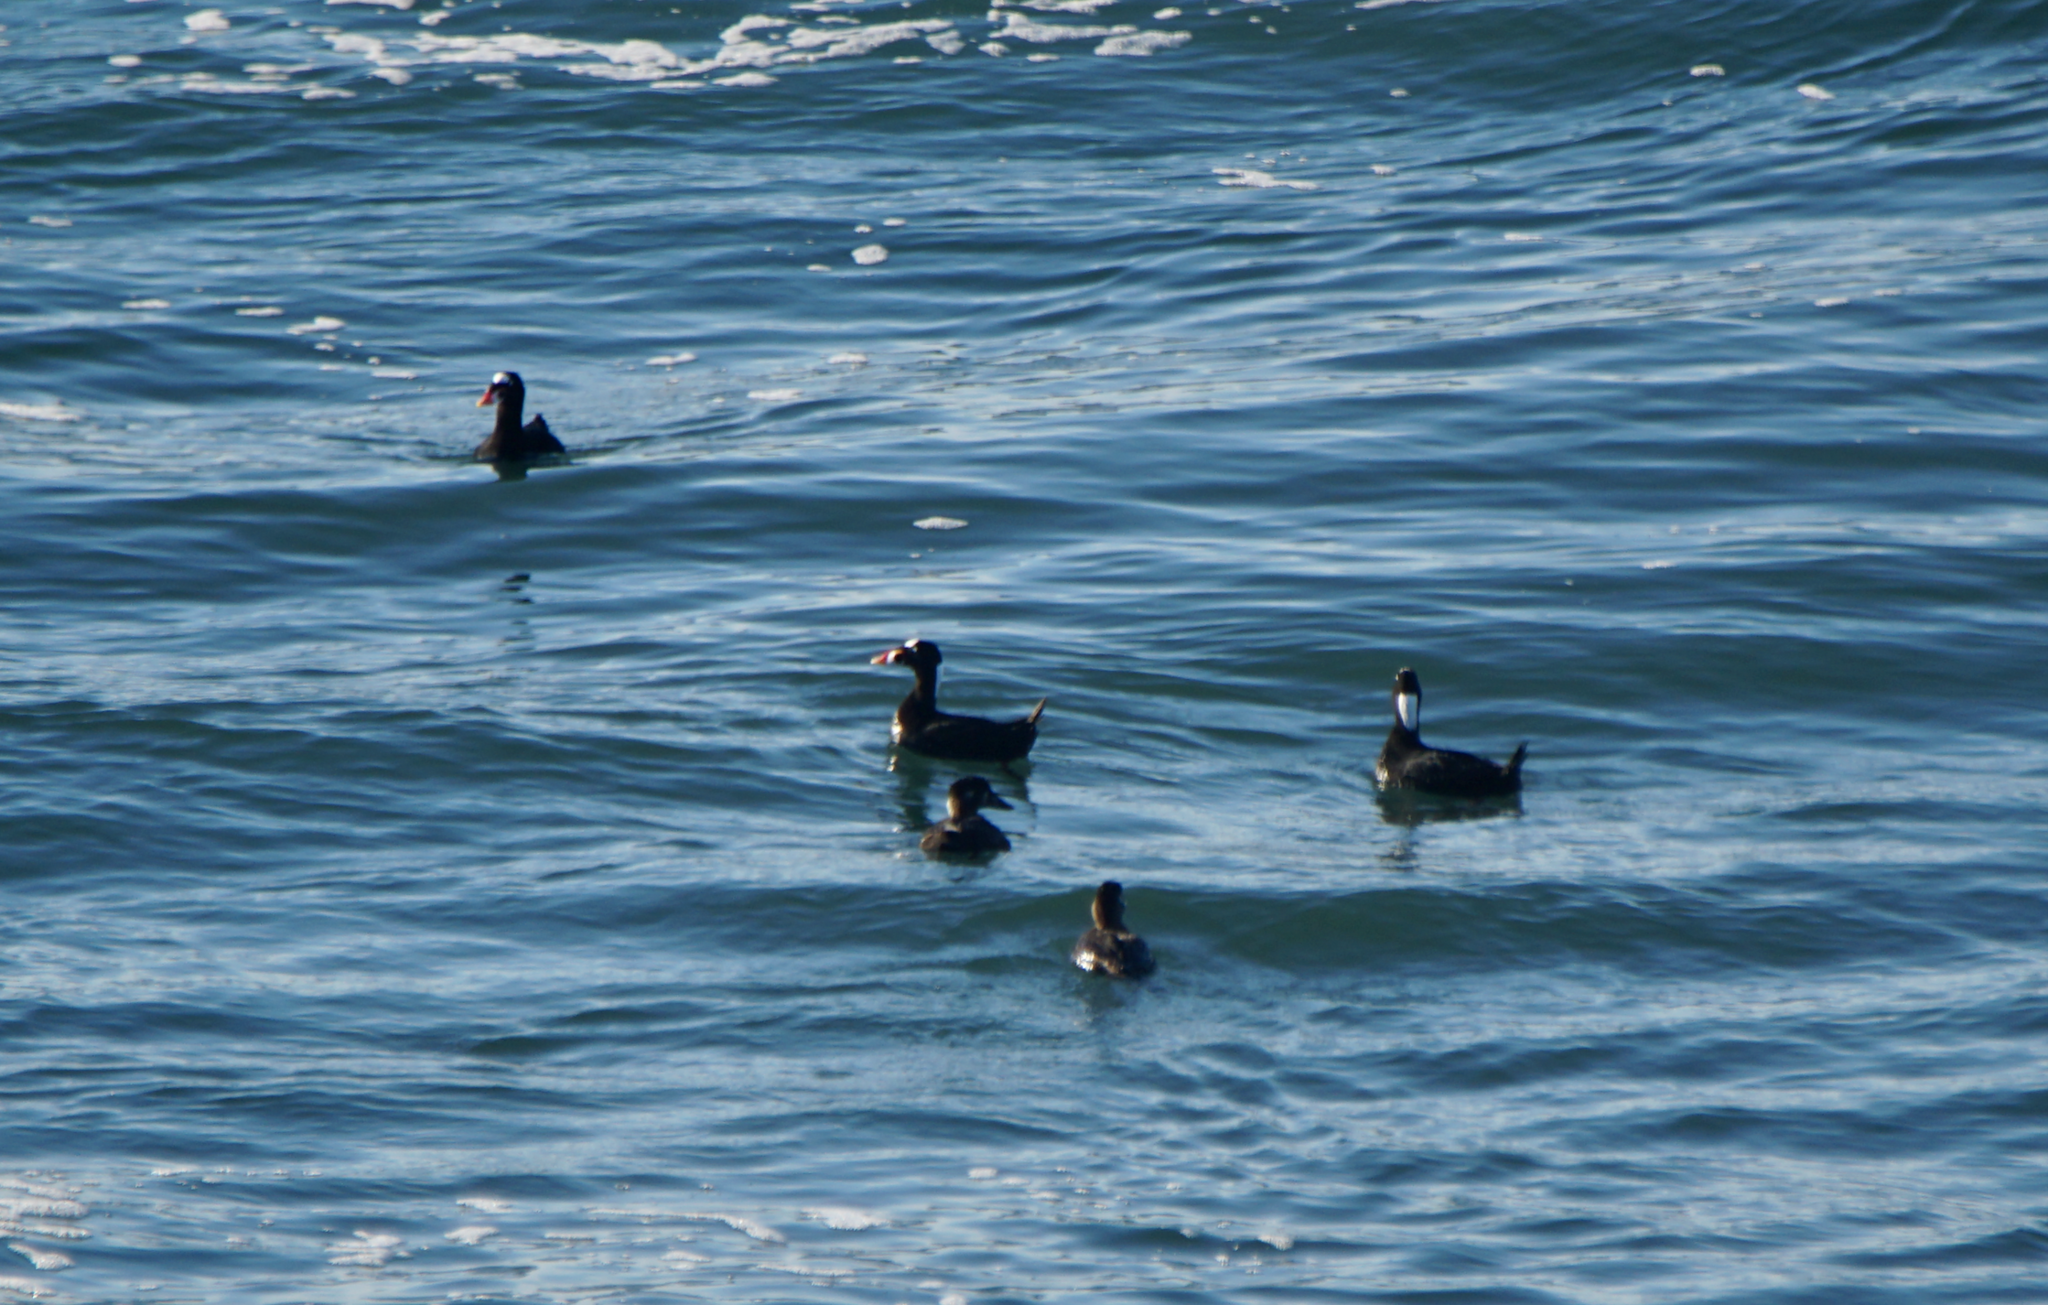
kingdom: Animalia
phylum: Chordata
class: Aves
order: Anseriformes
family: Anatidae
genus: Melanitta
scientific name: Melanitta perspicillata
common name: Surf scoter
